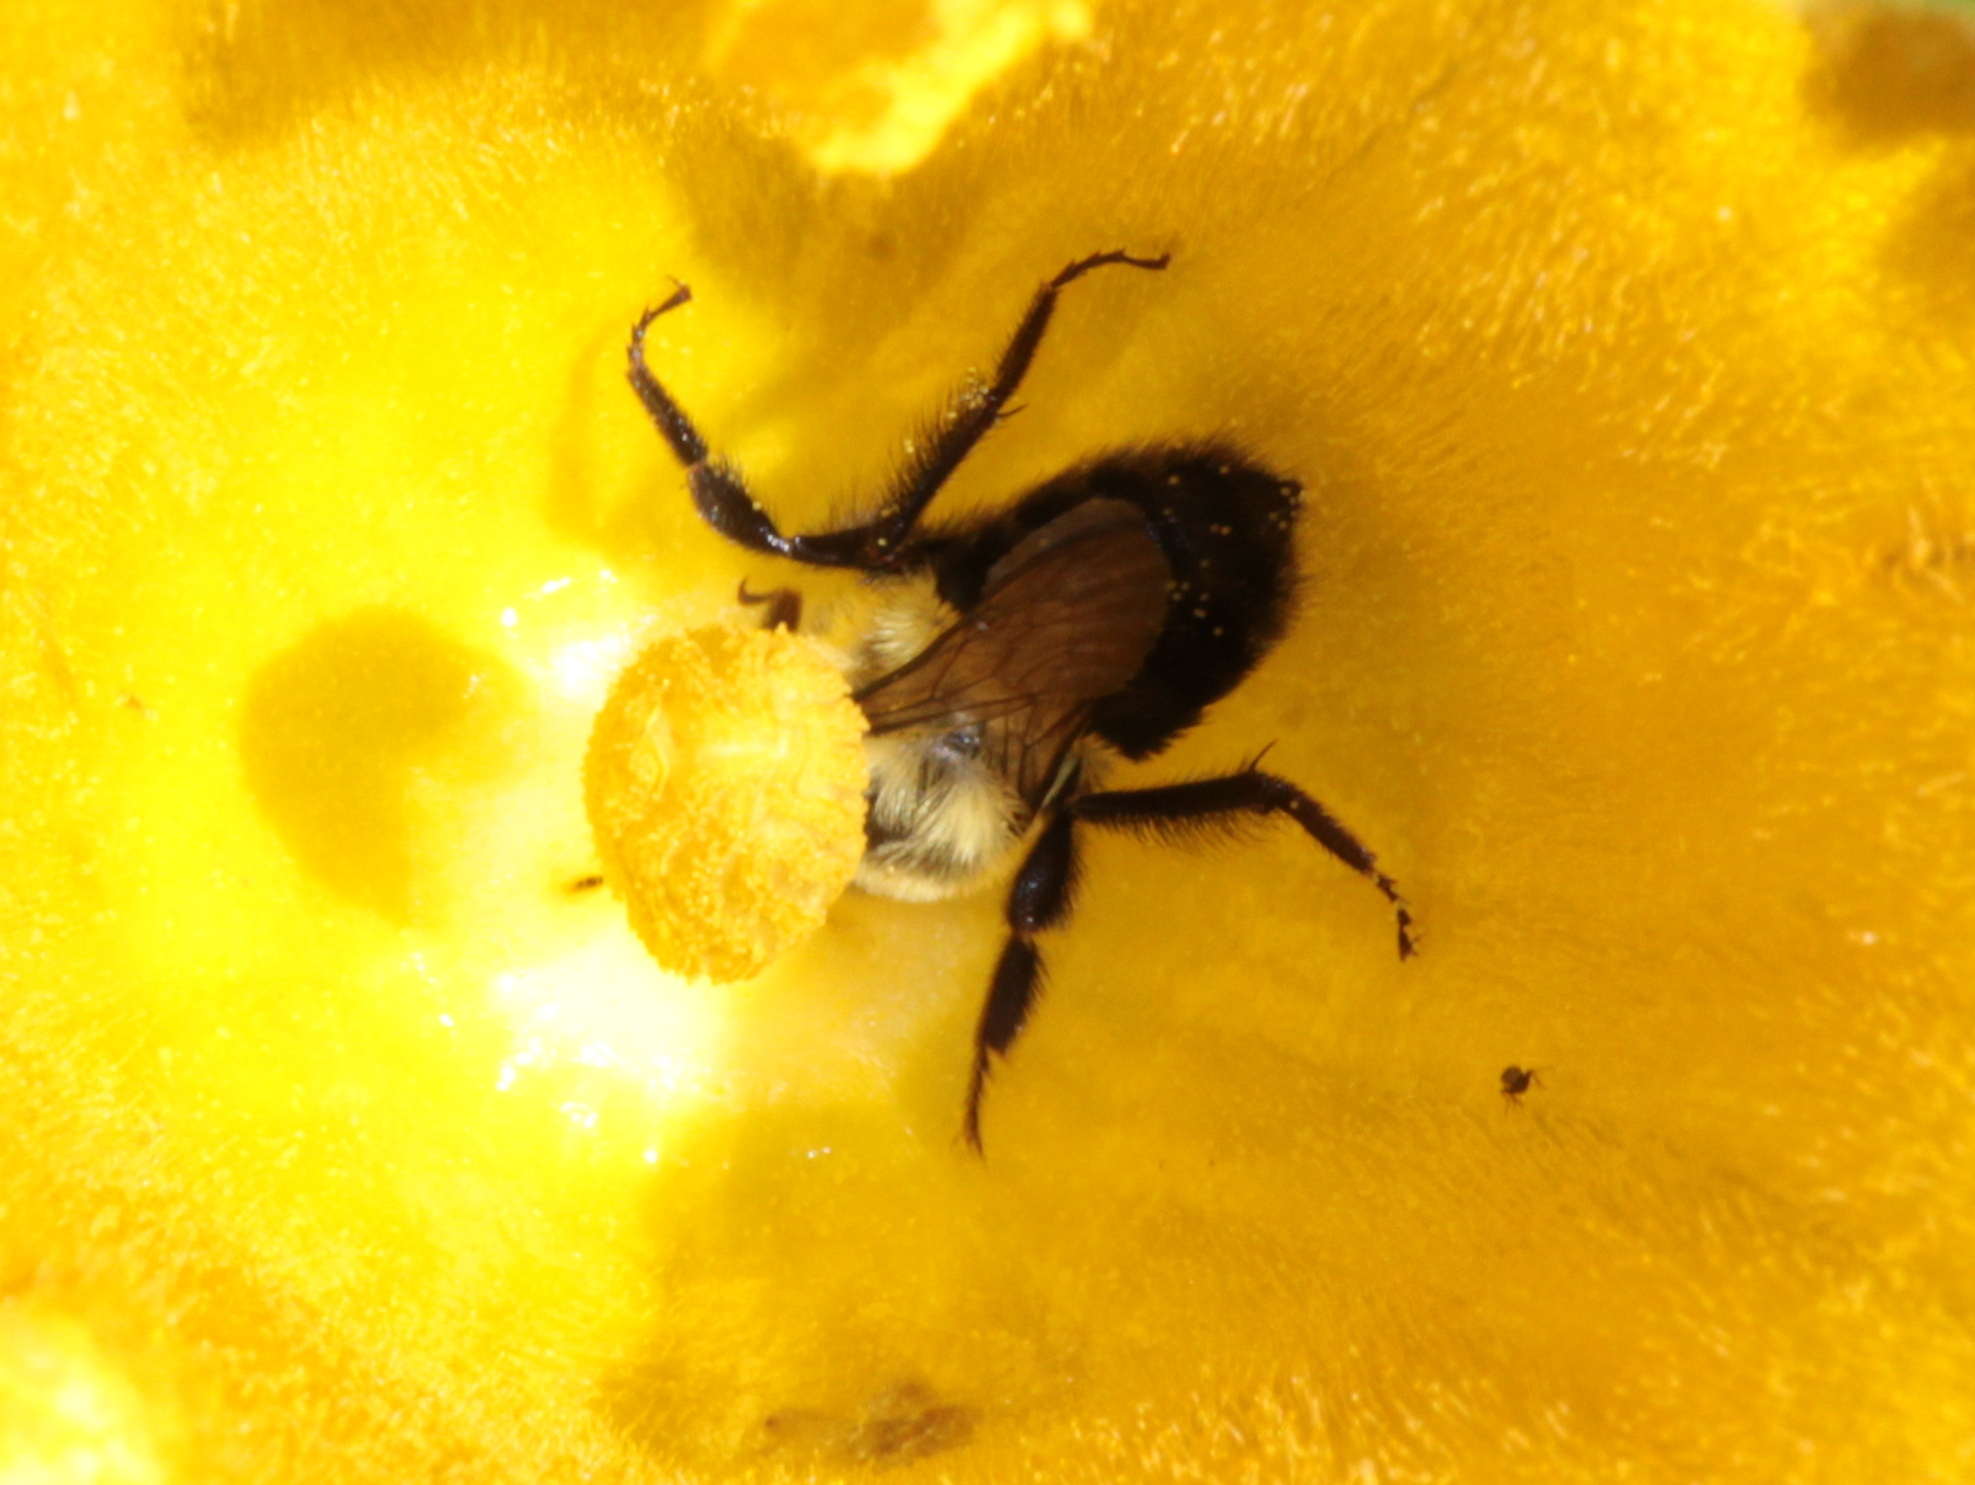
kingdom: Animalia
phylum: Arthropoda
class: Insecta
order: Hymenoptera
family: Apidae
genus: Bombus
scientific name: Bombus impatiens
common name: Common eastern bumble bee
